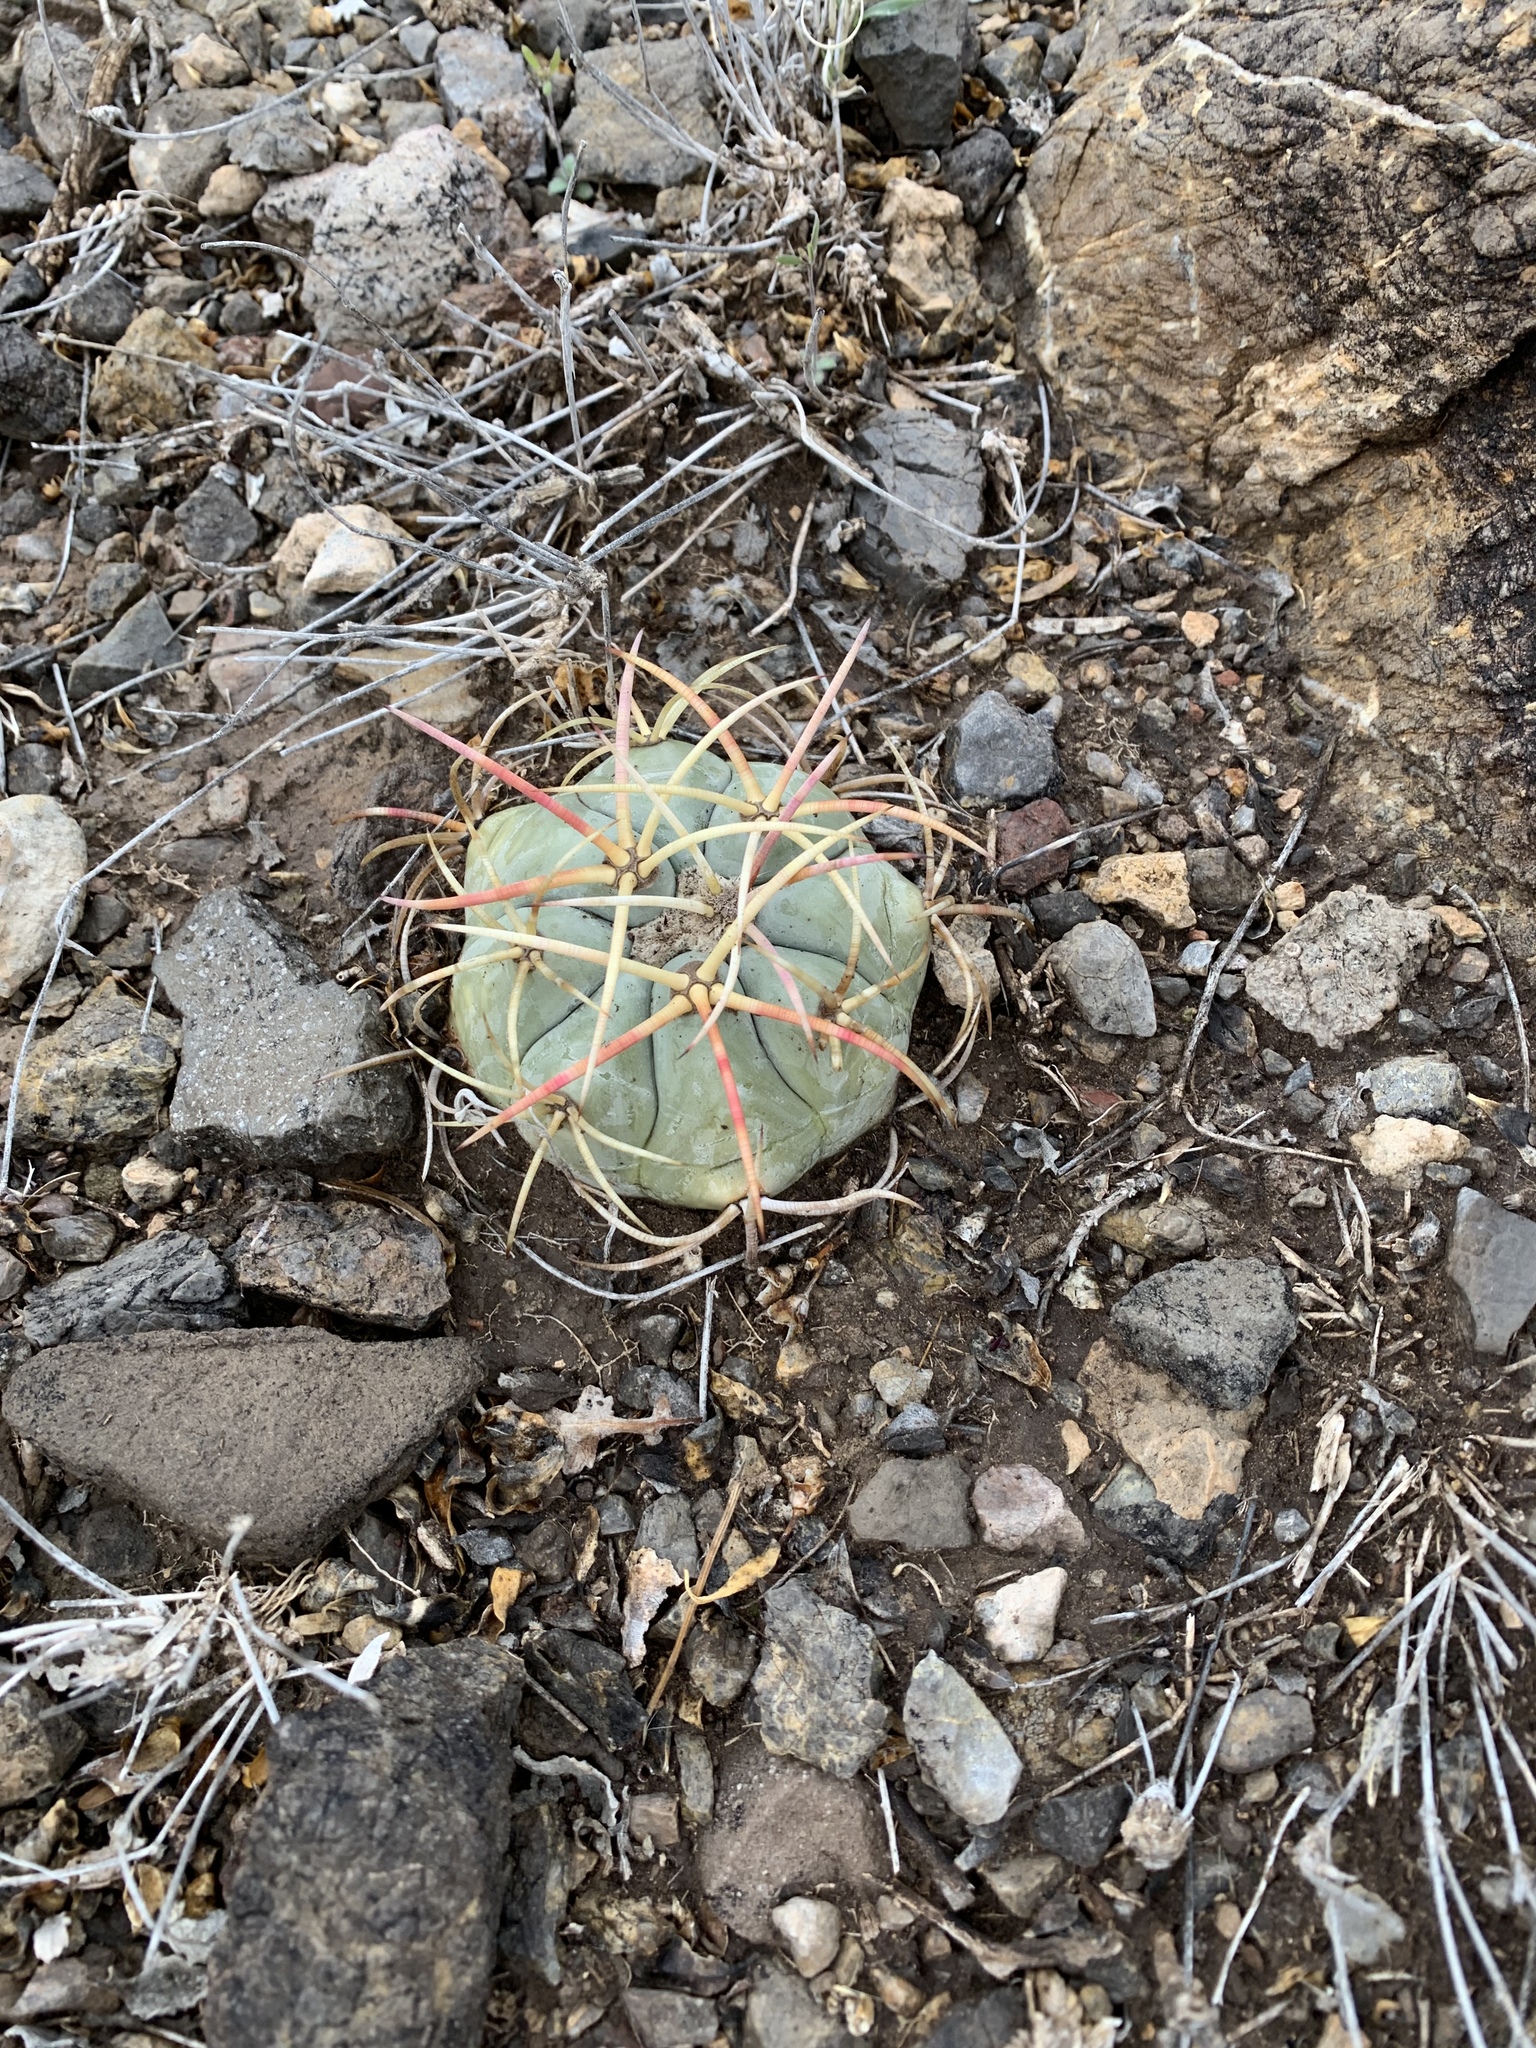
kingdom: Plantae
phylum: Tracheophyta
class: Magnoliopsida
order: Caryophyllales
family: Cactaceae
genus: Echinocactus
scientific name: Echinocactus horizonthalonius
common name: Devilshead
